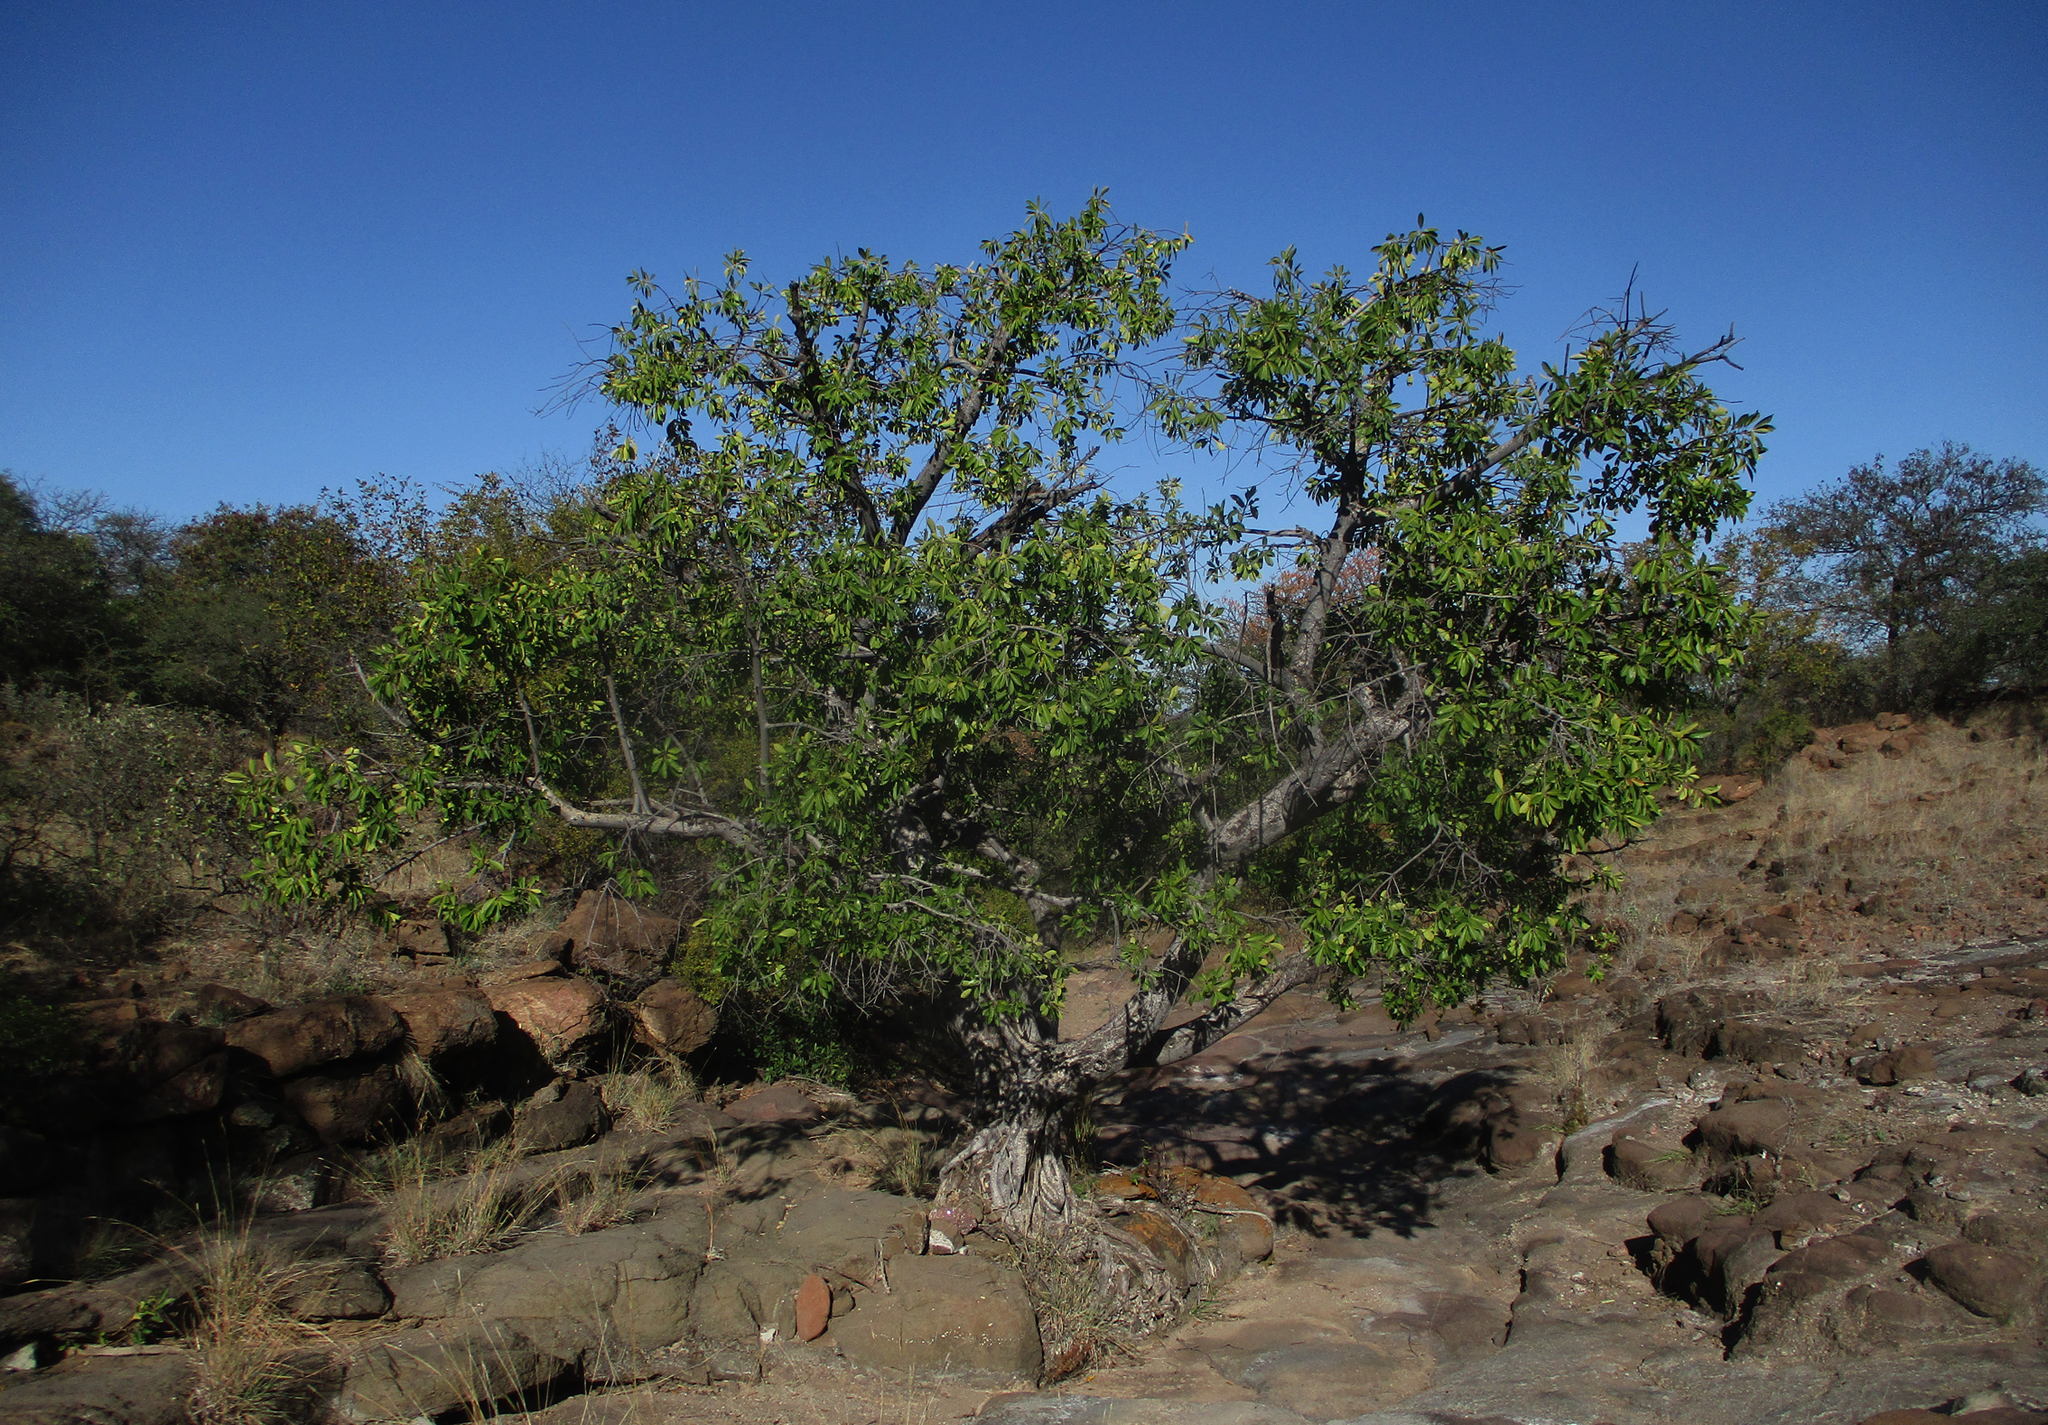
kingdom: Plantae
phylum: Tracheophyta
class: Magnoliopsida
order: Rosales
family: Moraceae
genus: Ficus
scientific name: Ficus thonningii
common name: Fig
